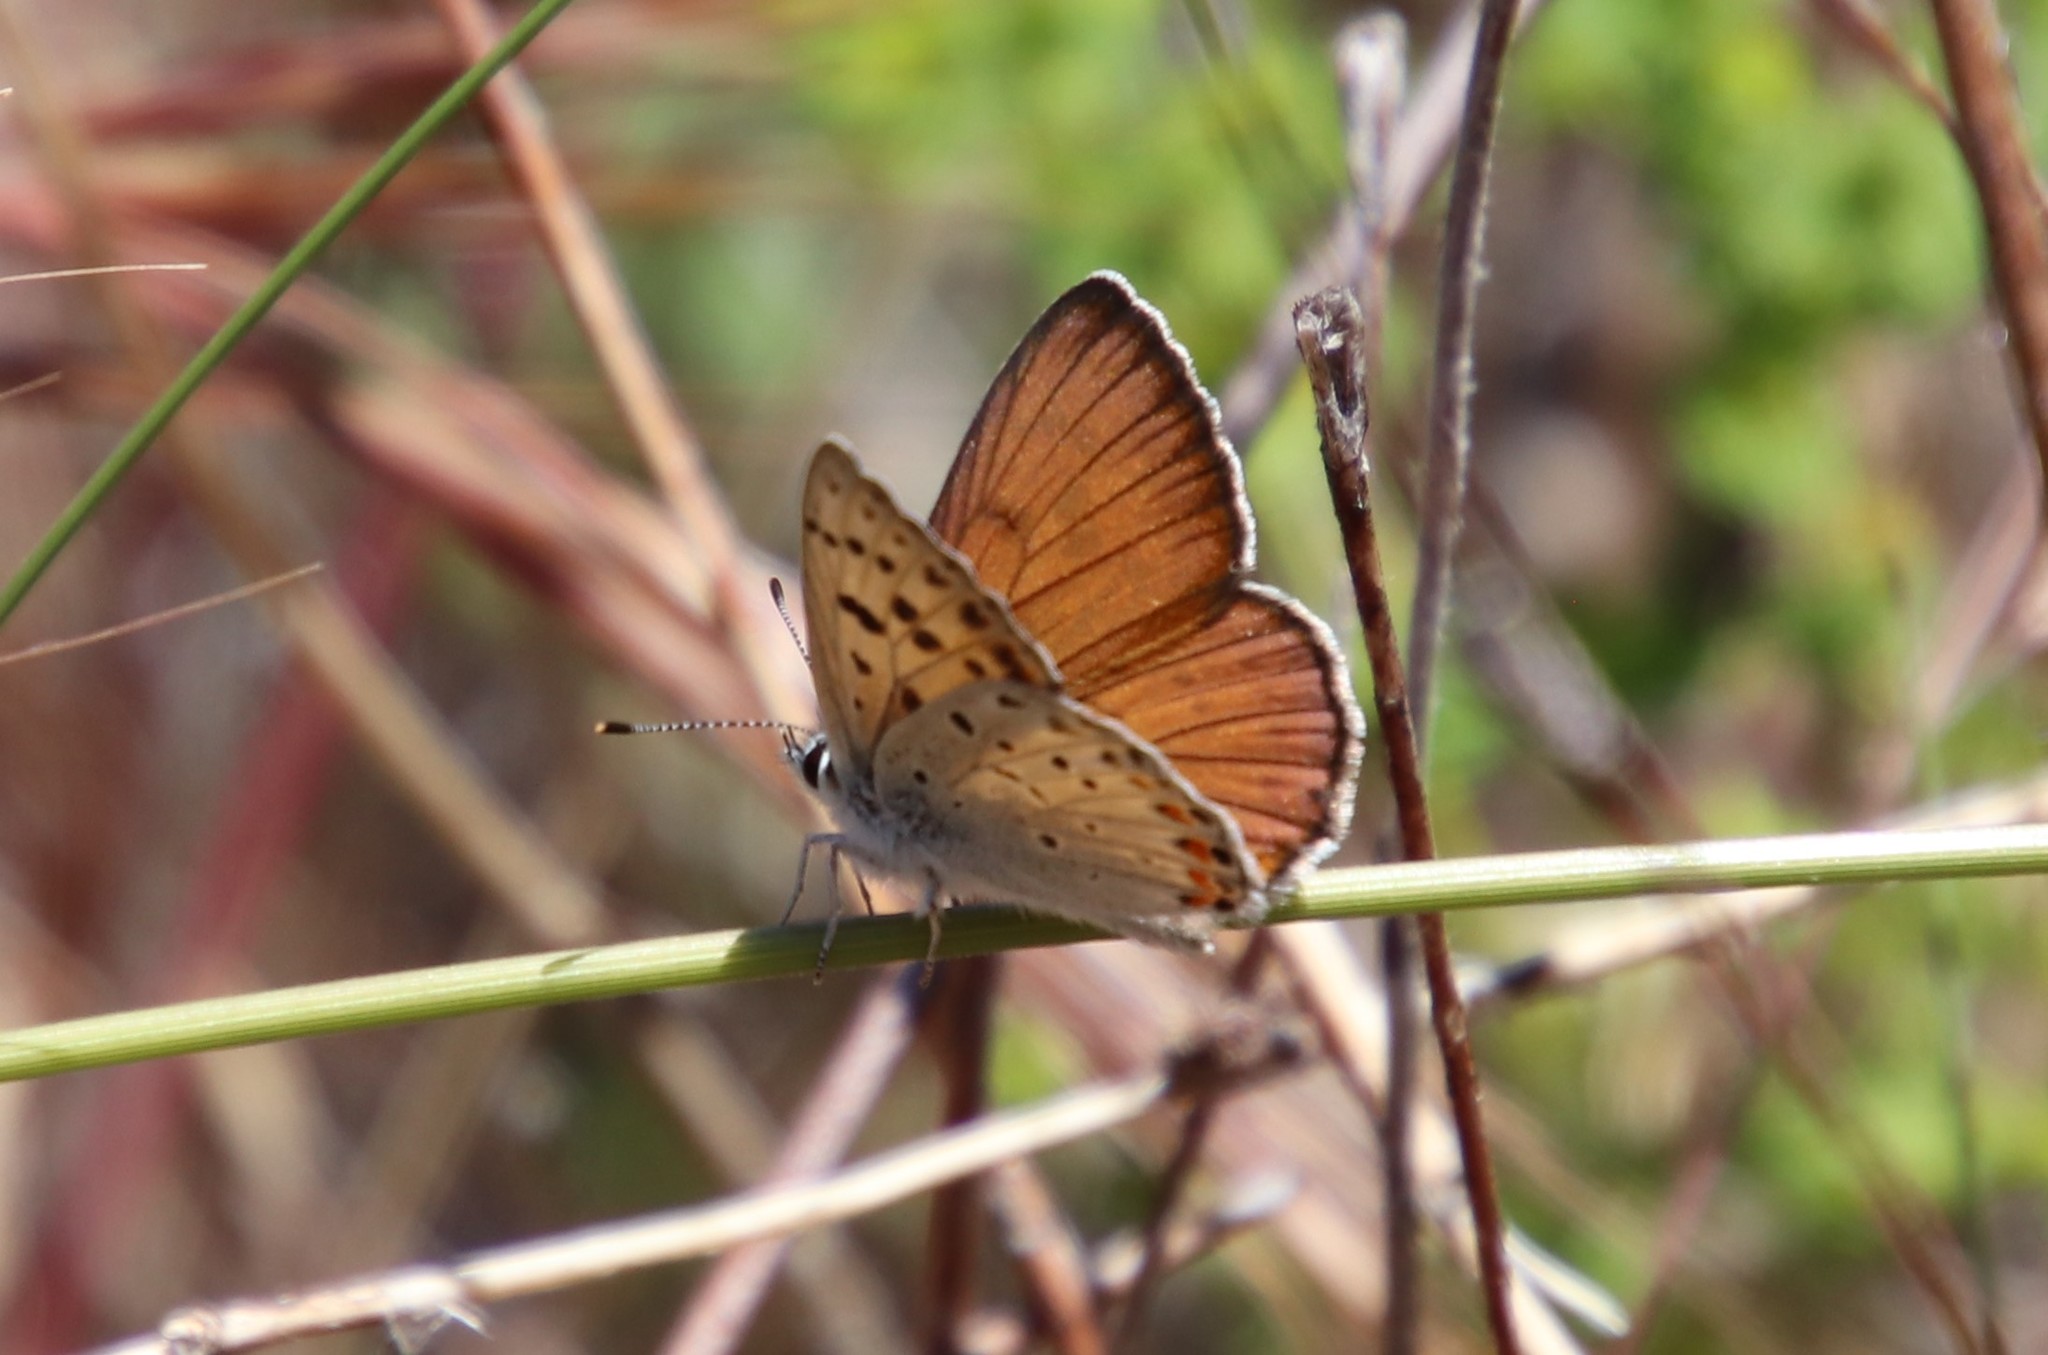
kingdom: Animalia
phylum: Arthropoda
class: Insecta
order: Lepidoptera
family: Lycaenidae
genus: Tharsalea
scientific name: Tharsalea gorgon
